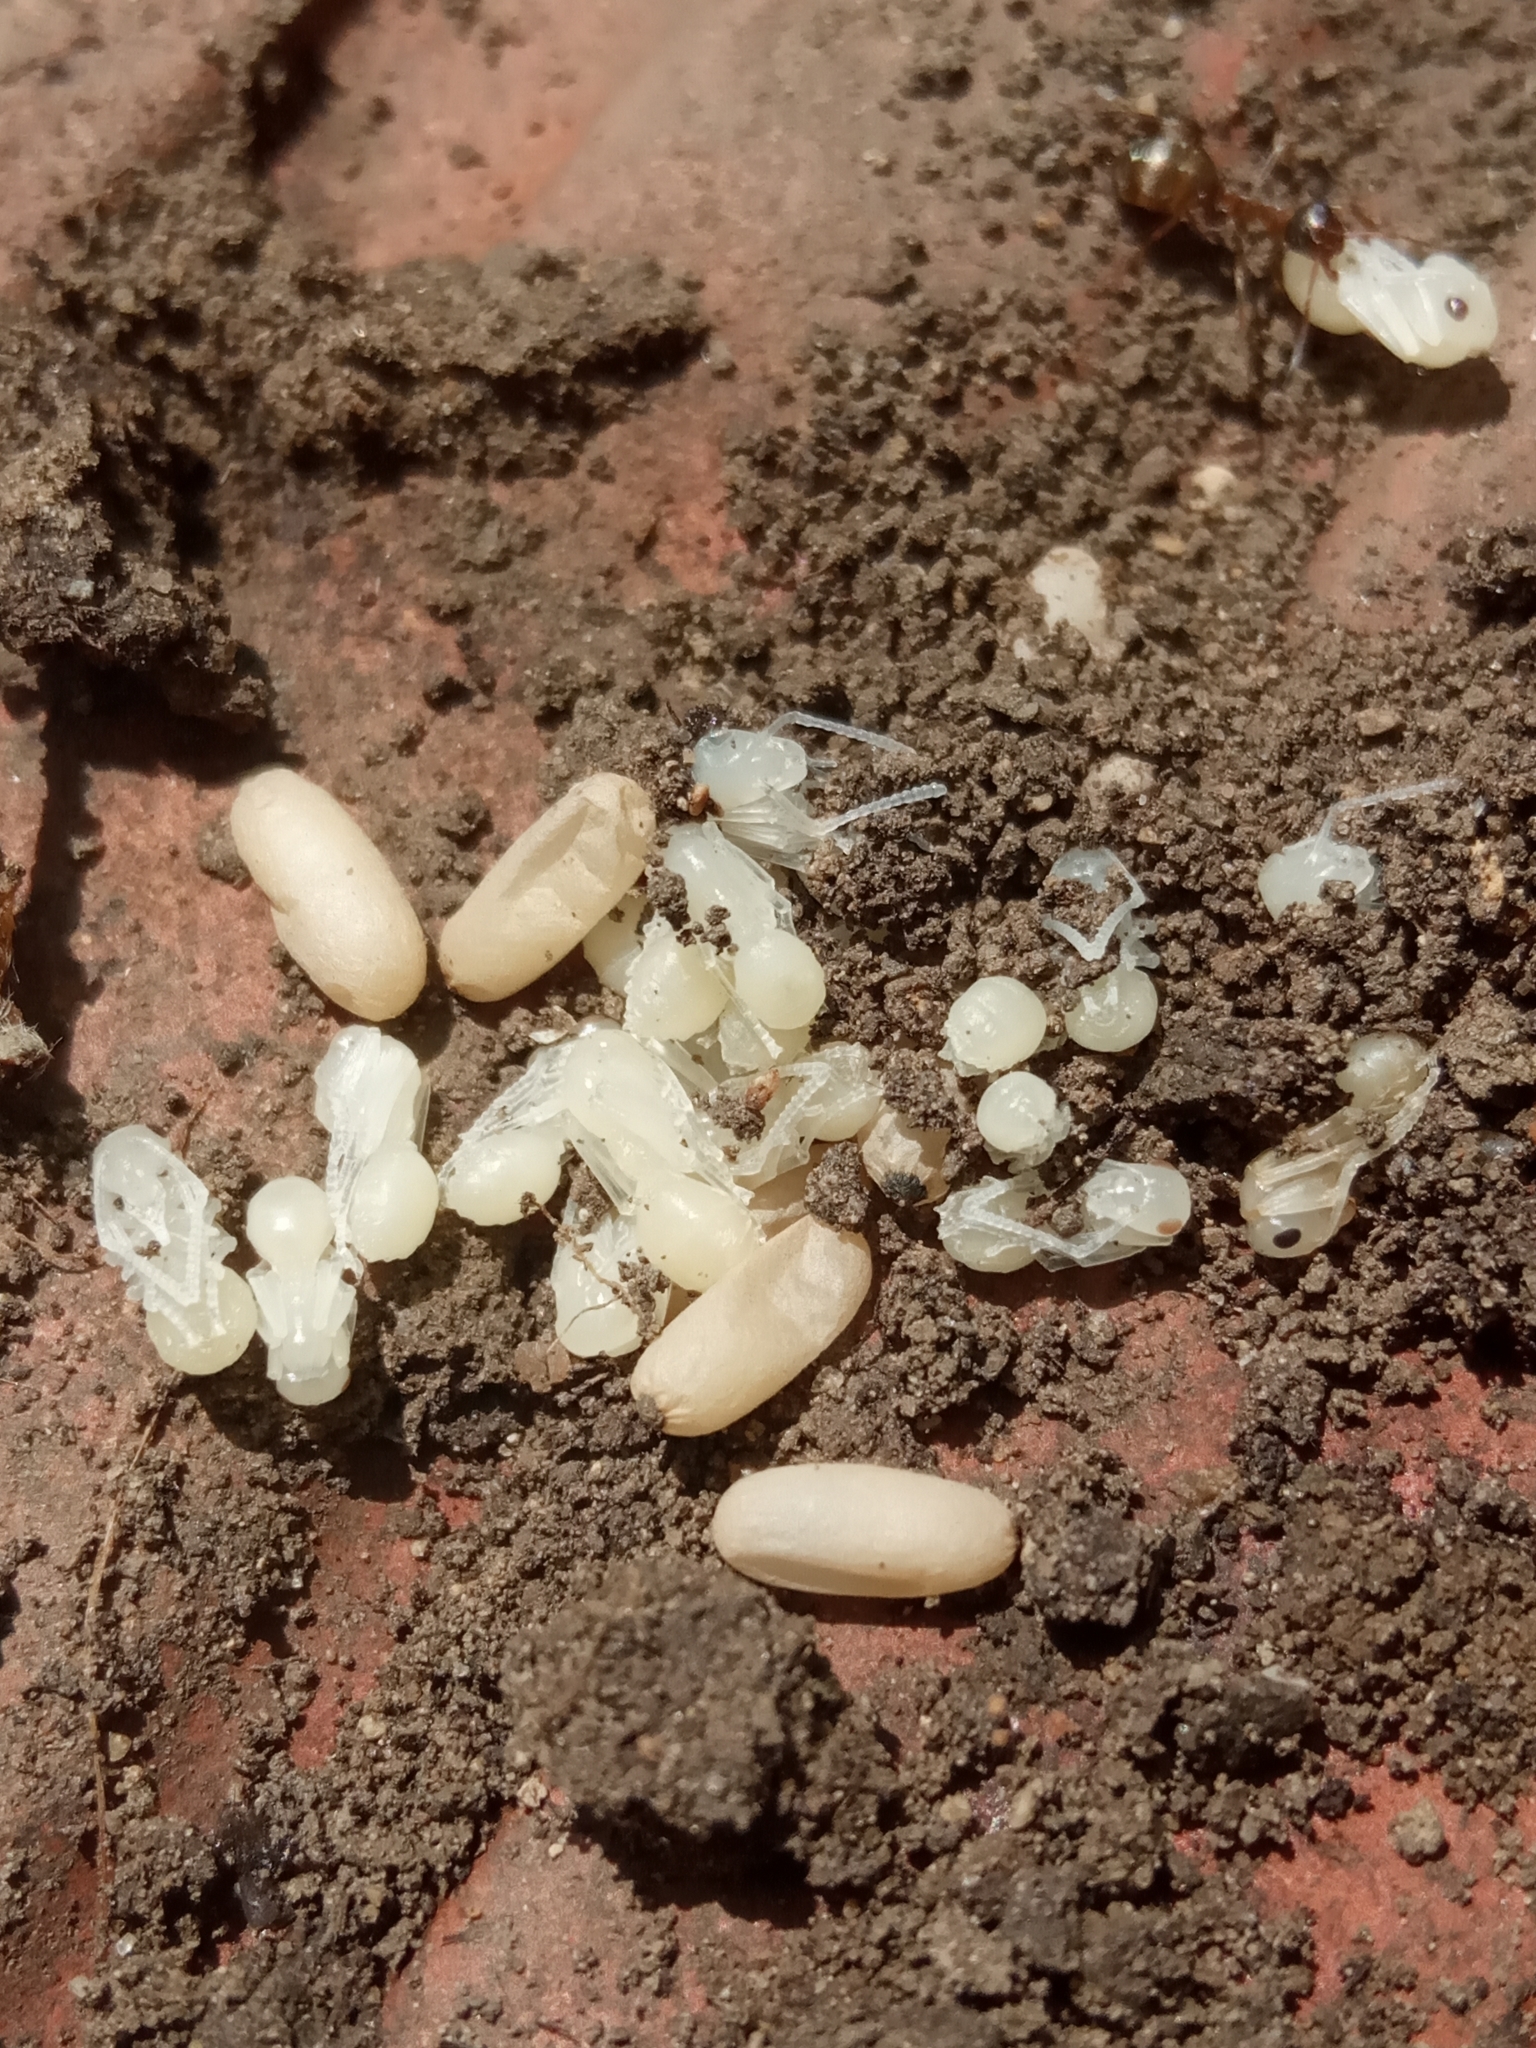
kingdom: Animalia
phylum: Arthropoda
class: Insecta
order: Hymenoptera
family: Formicidae
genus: Formica
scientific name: Formica
